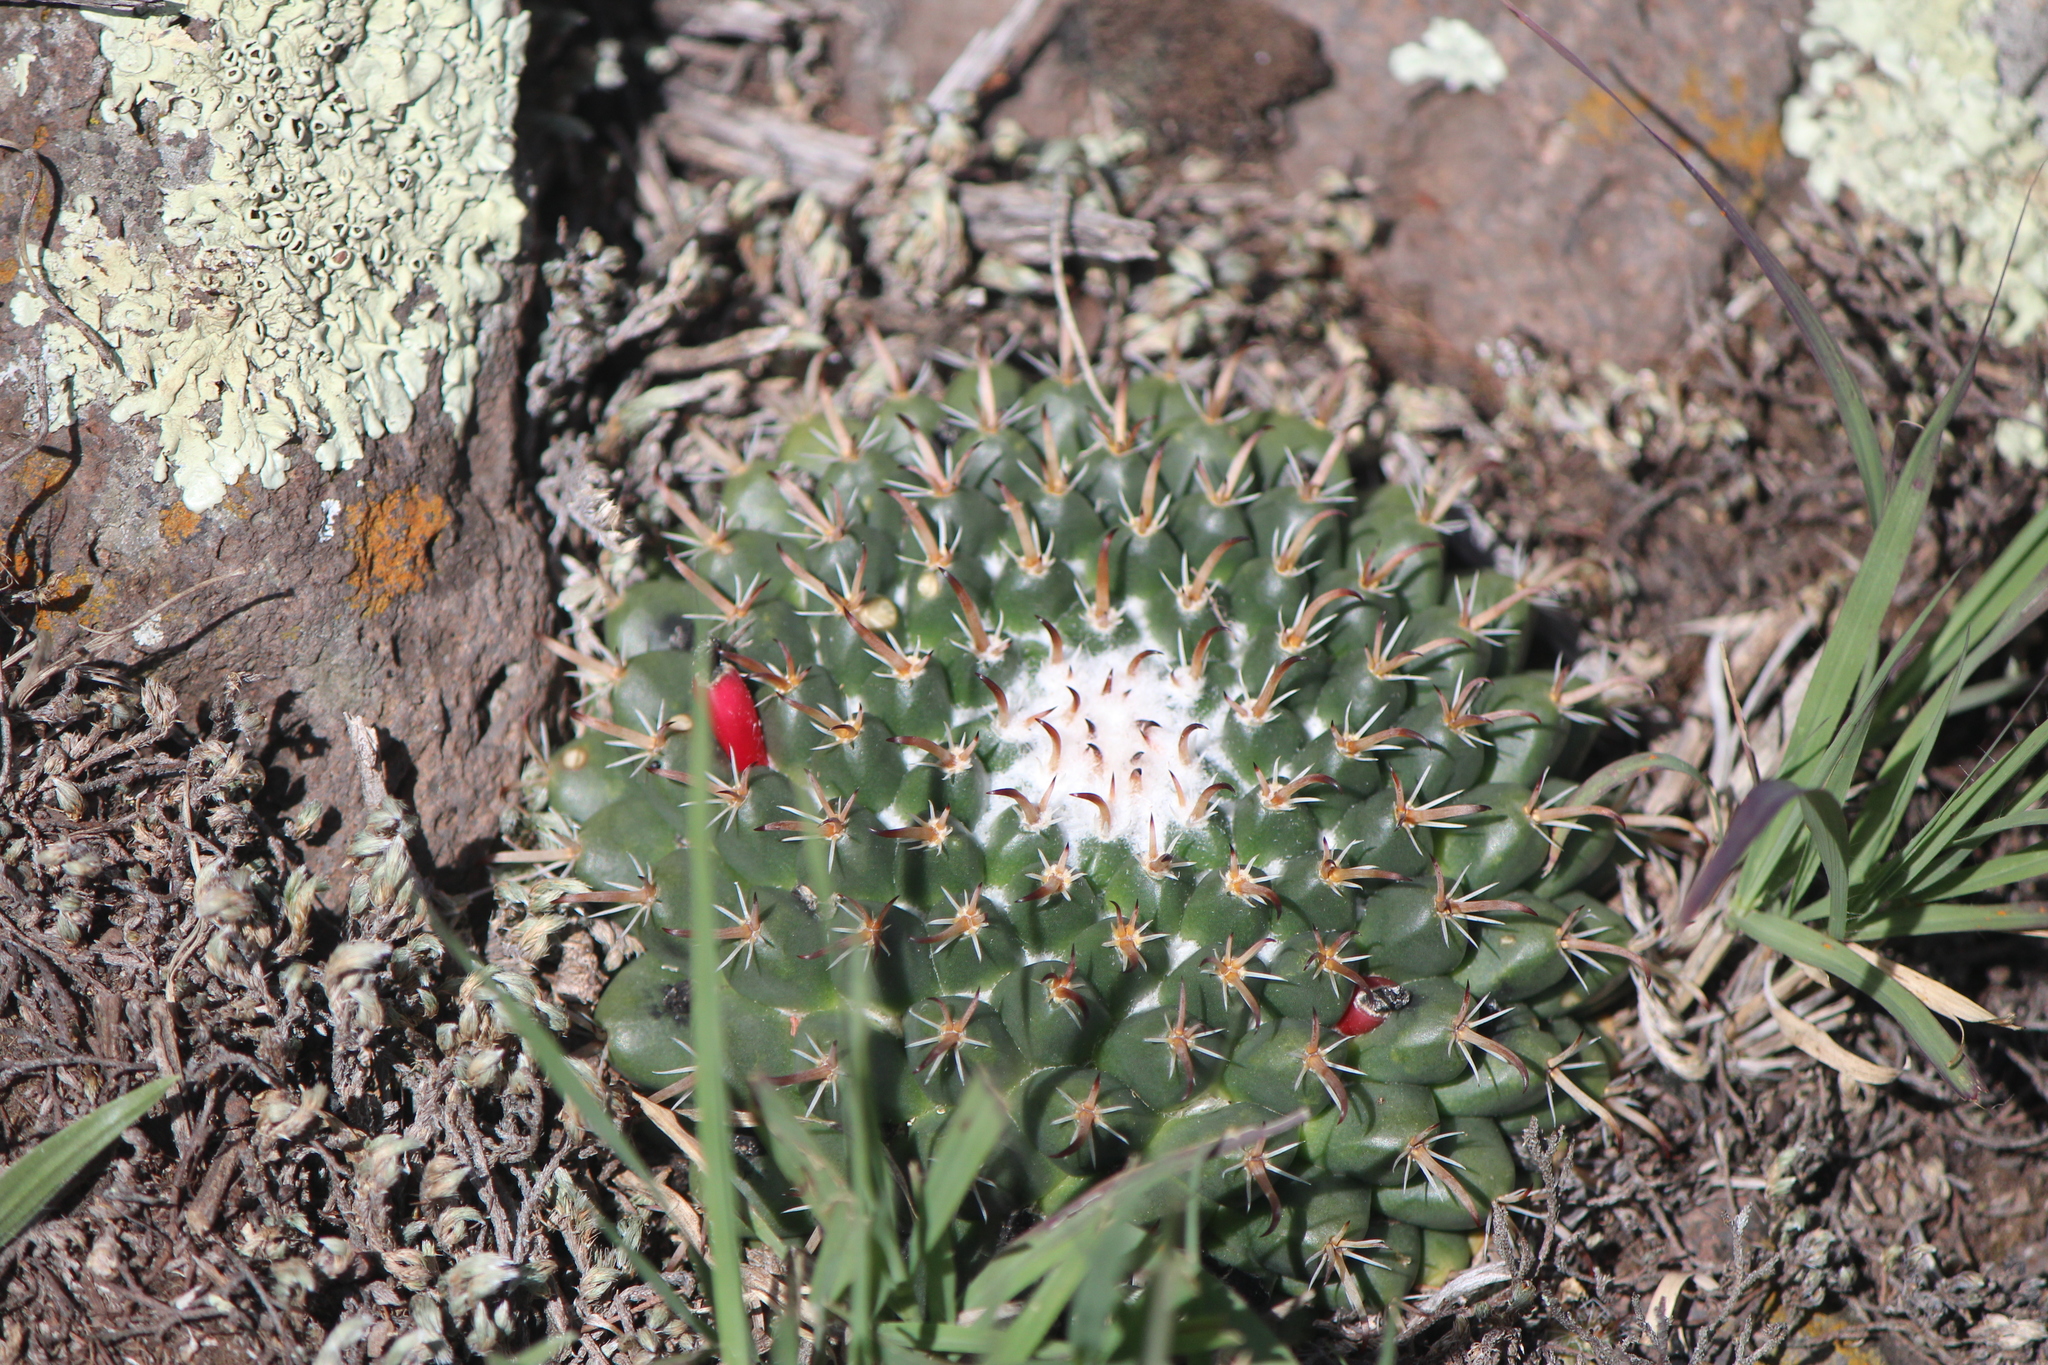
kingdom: Plantae
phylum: Tracheophyta
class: Magnoliopsida
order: Caryophyllales
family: Cactaceae
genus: Mammillaria
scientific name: Mammillaria uncinata
